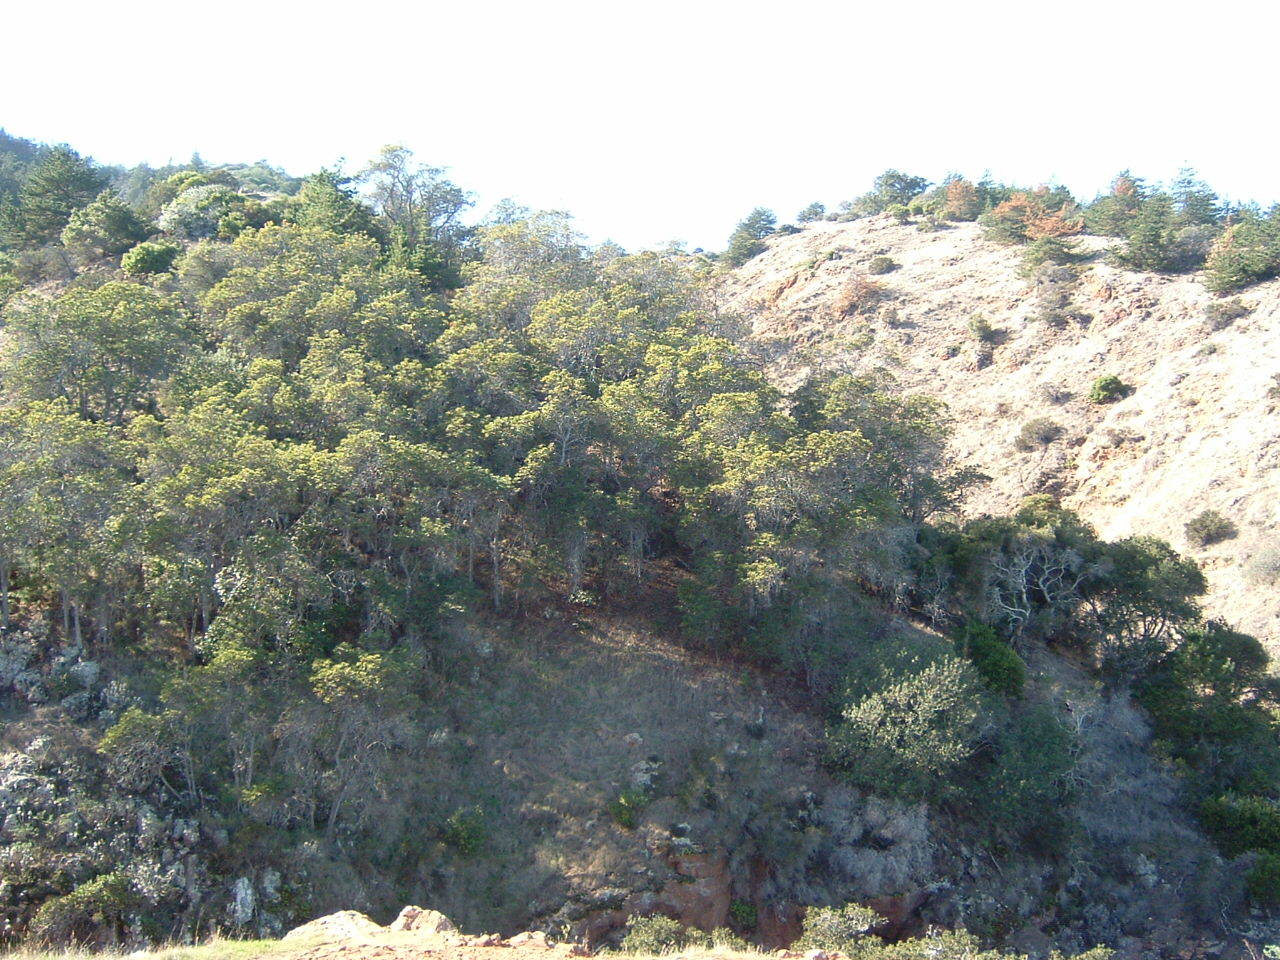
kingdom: Plantae
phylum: Tracheophyta
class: Magnoliopsida
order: Rosales
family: Rosaceae
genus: Lyonothamnus
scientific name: Lyonothamnus floribundus
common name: Catalina ironwood
